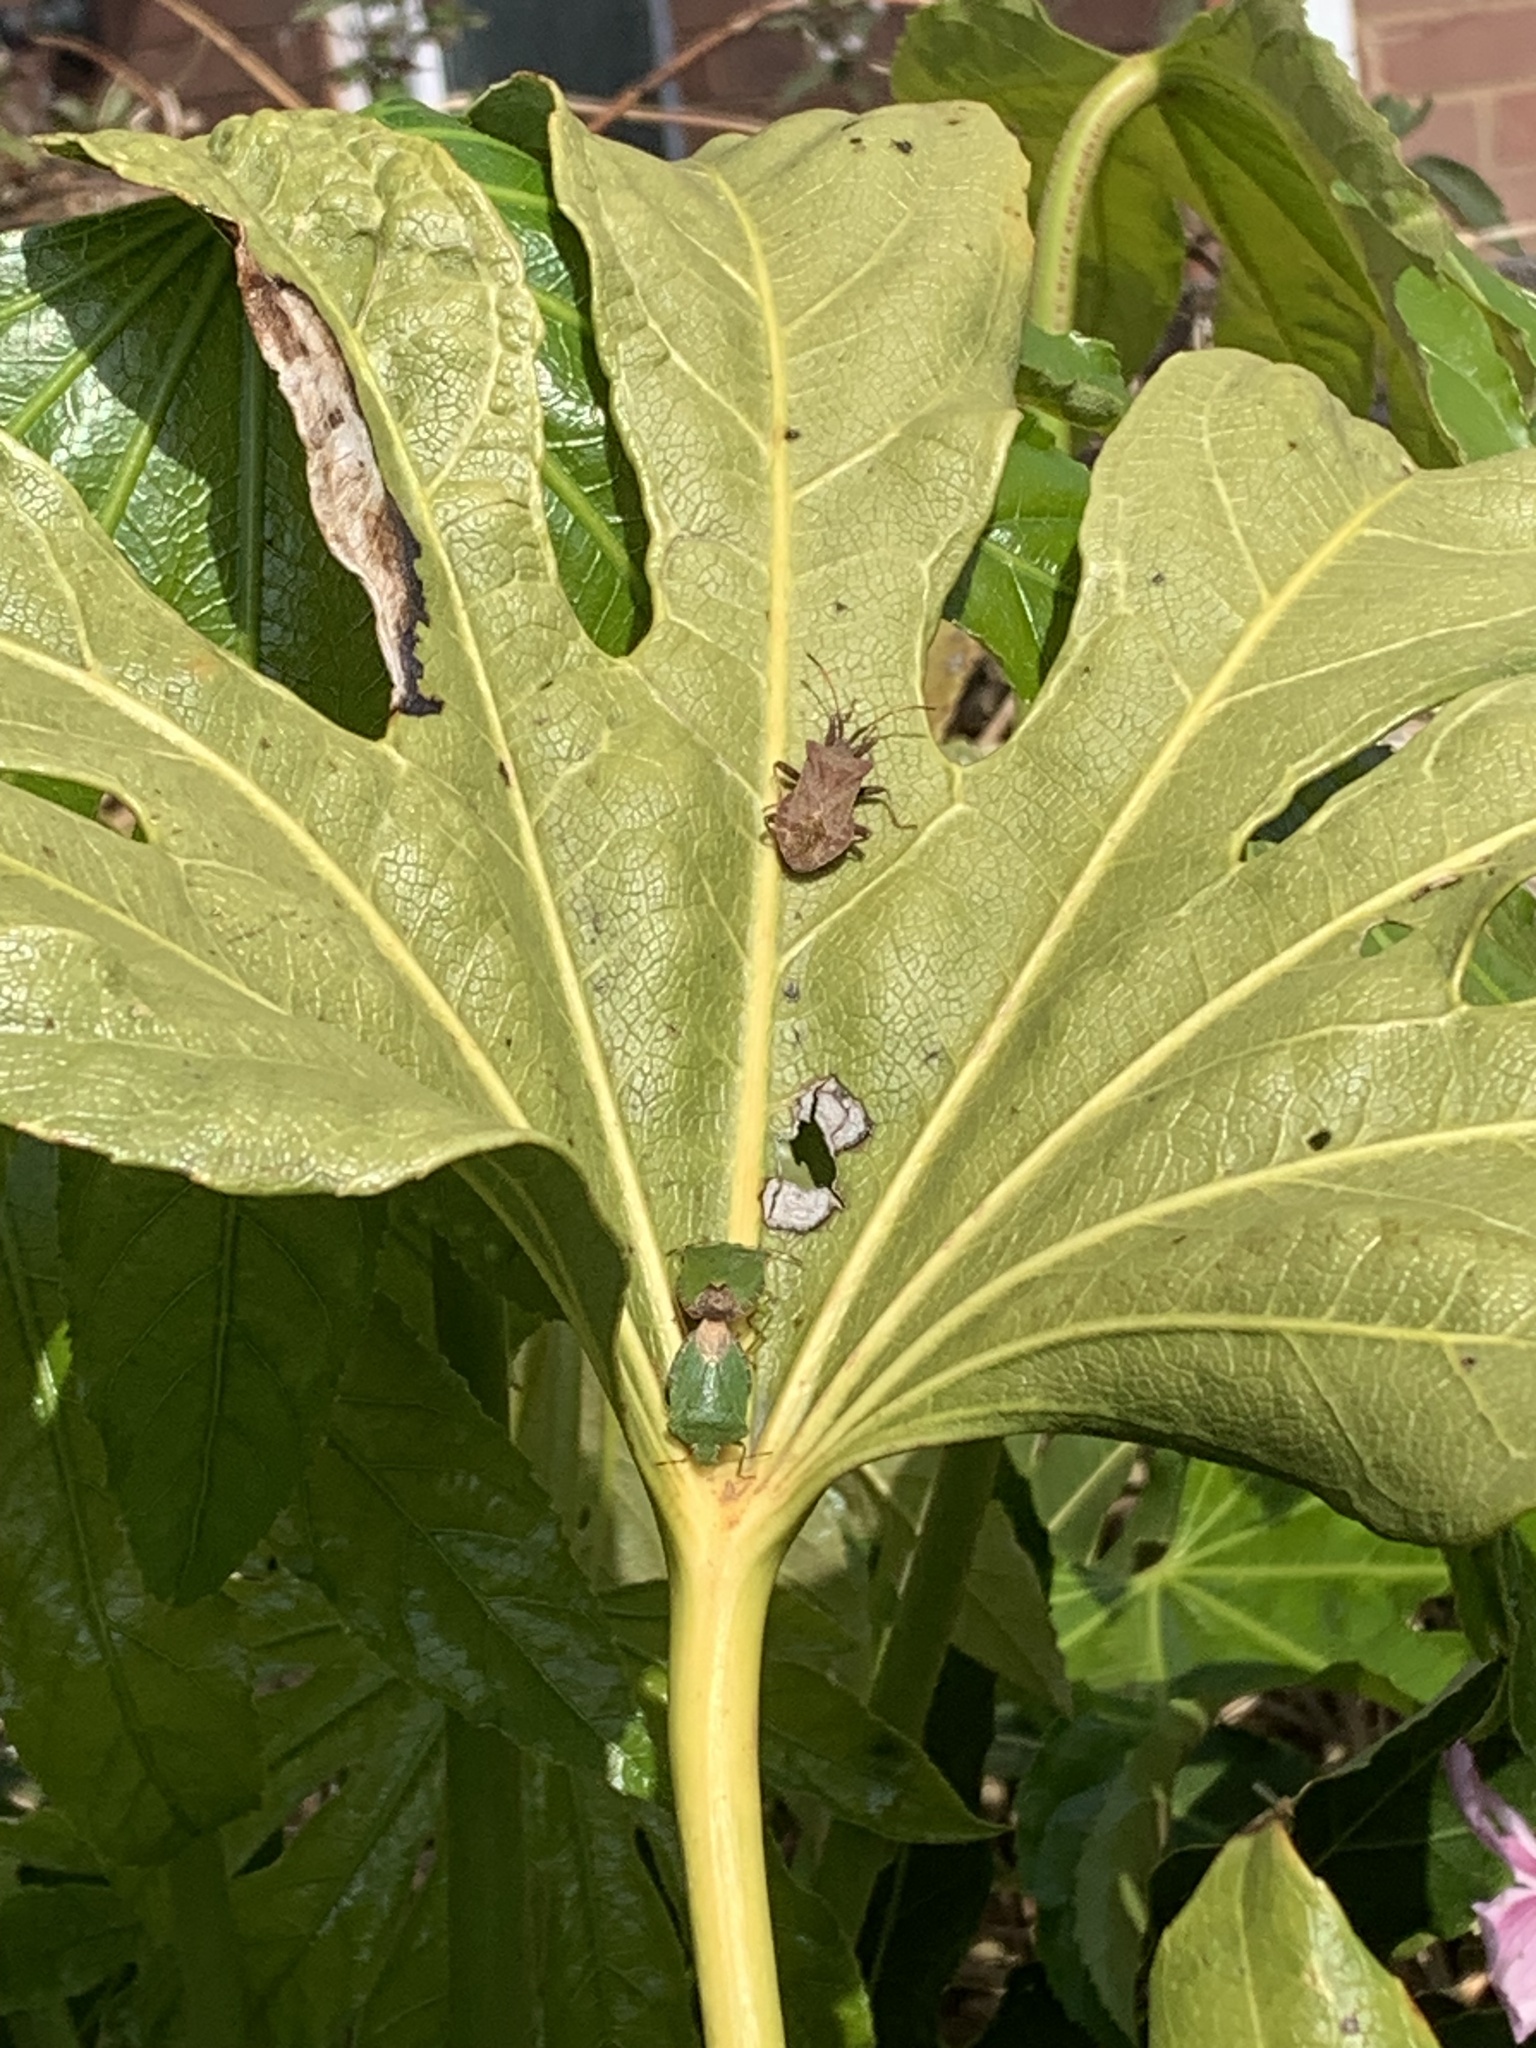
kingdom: Animalia
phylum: Arthropoda
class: Insecta
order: Hemiptera
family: Coreidae
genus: Coreus
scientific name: Coreus marginatus
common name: Dock bug
